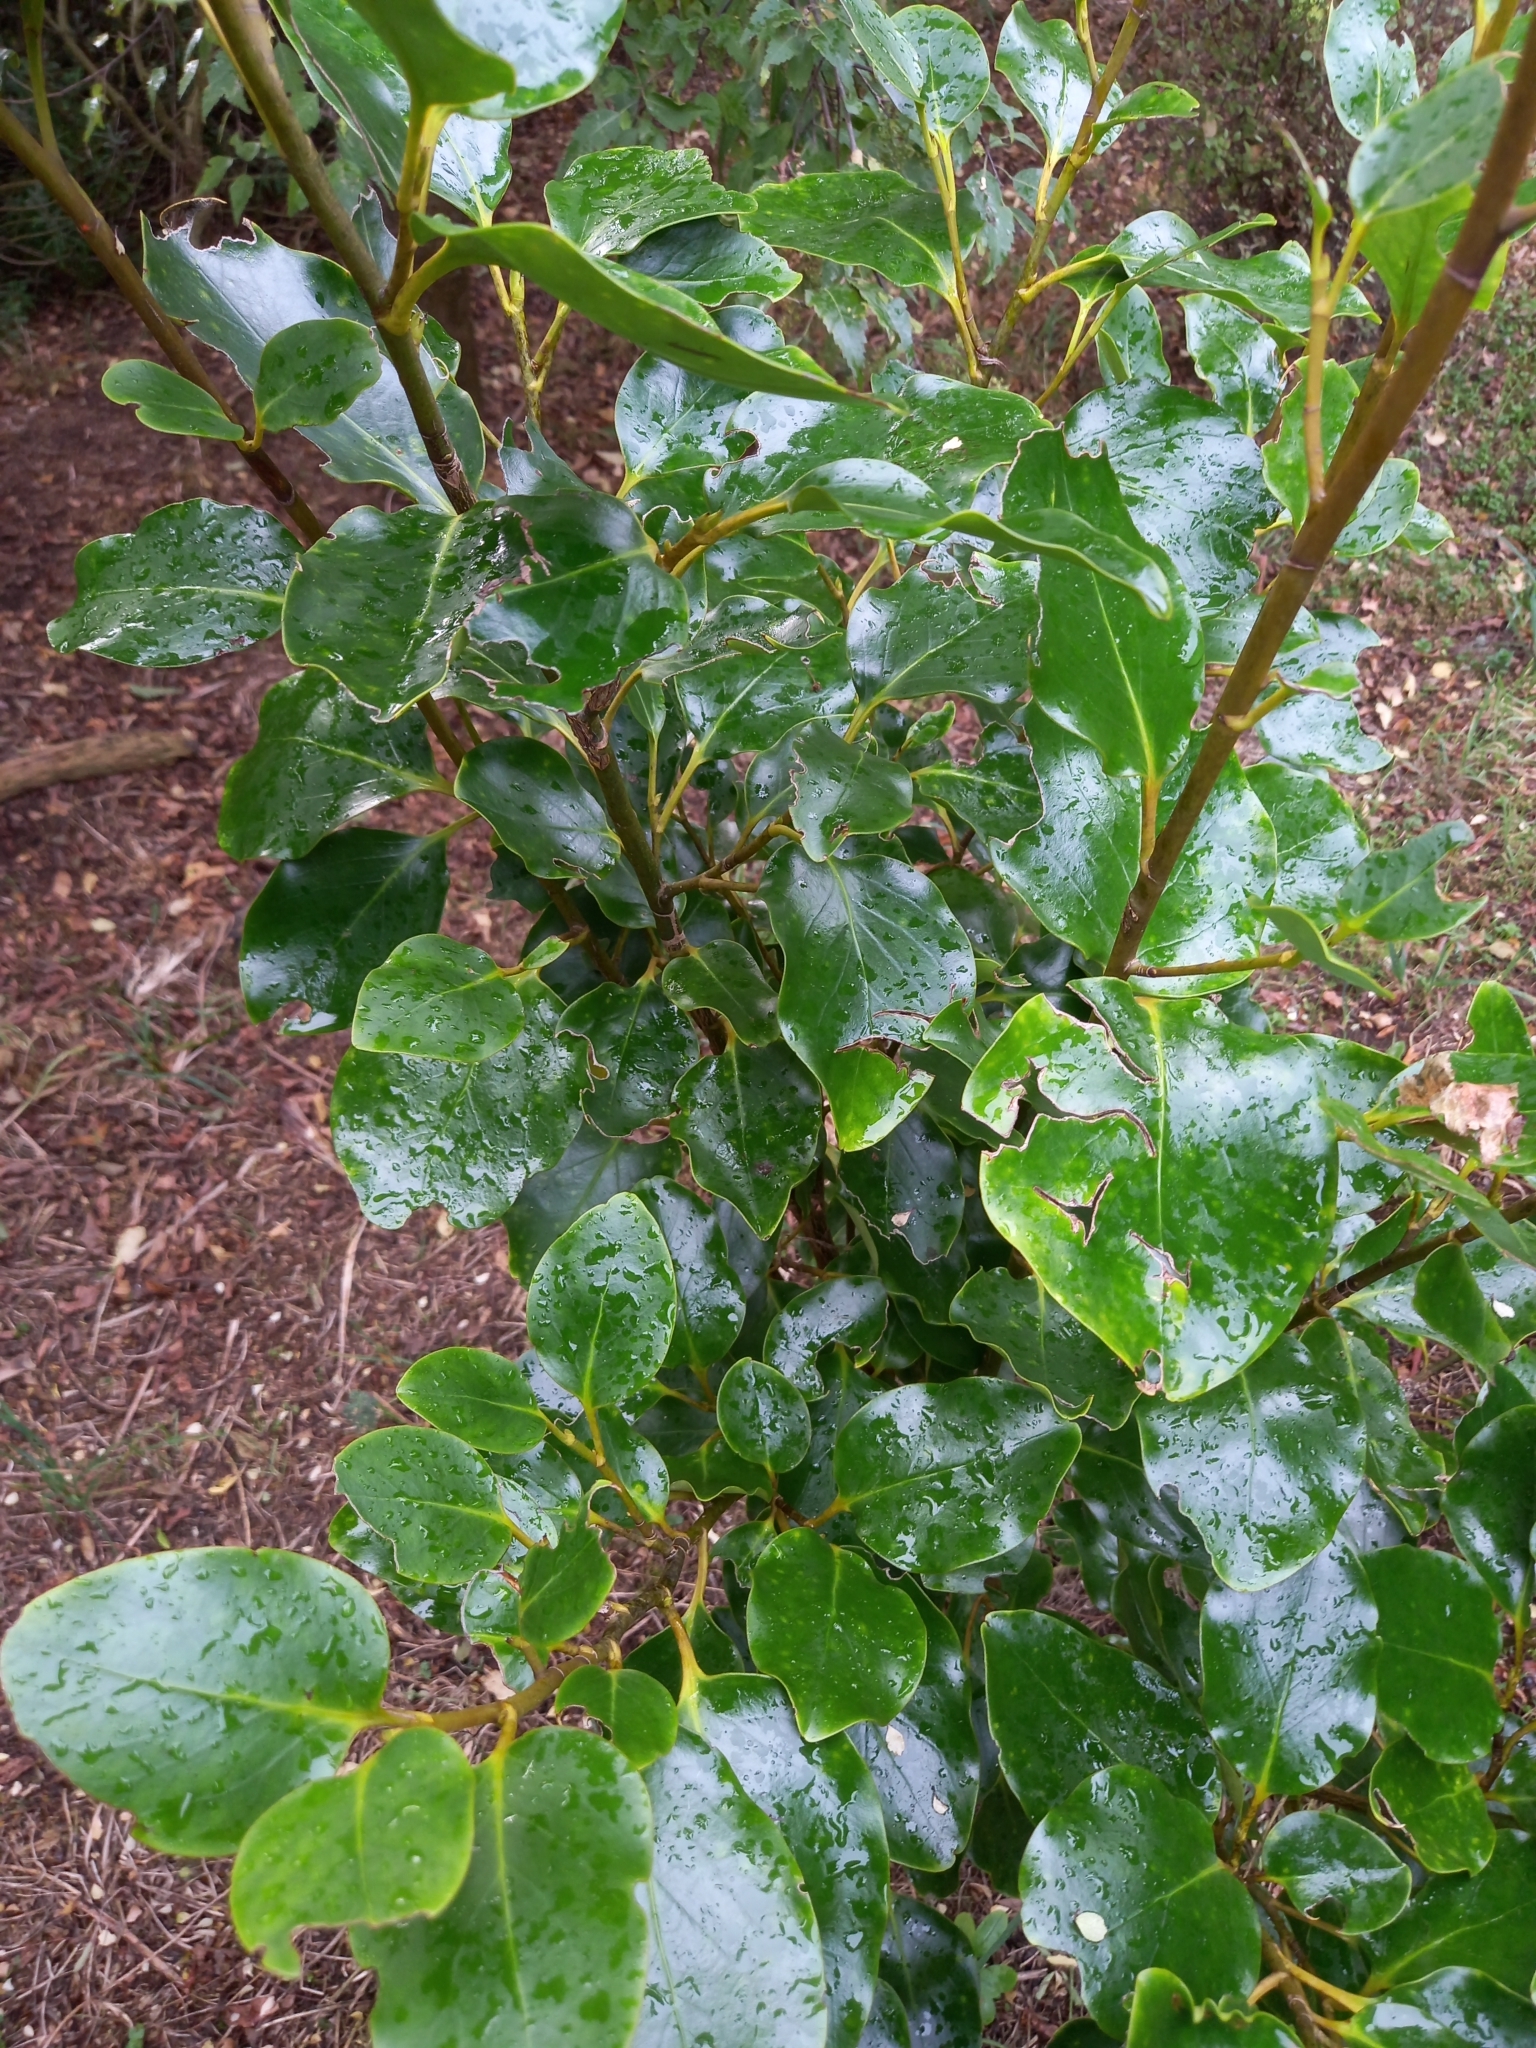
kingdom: Plantae
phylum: Tracheophyta
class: Magnoliopsida
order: Apiales
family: Griseliniaceae
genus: Griselinia
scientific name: Griselinia littoralis
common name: New zealand broadleaf
